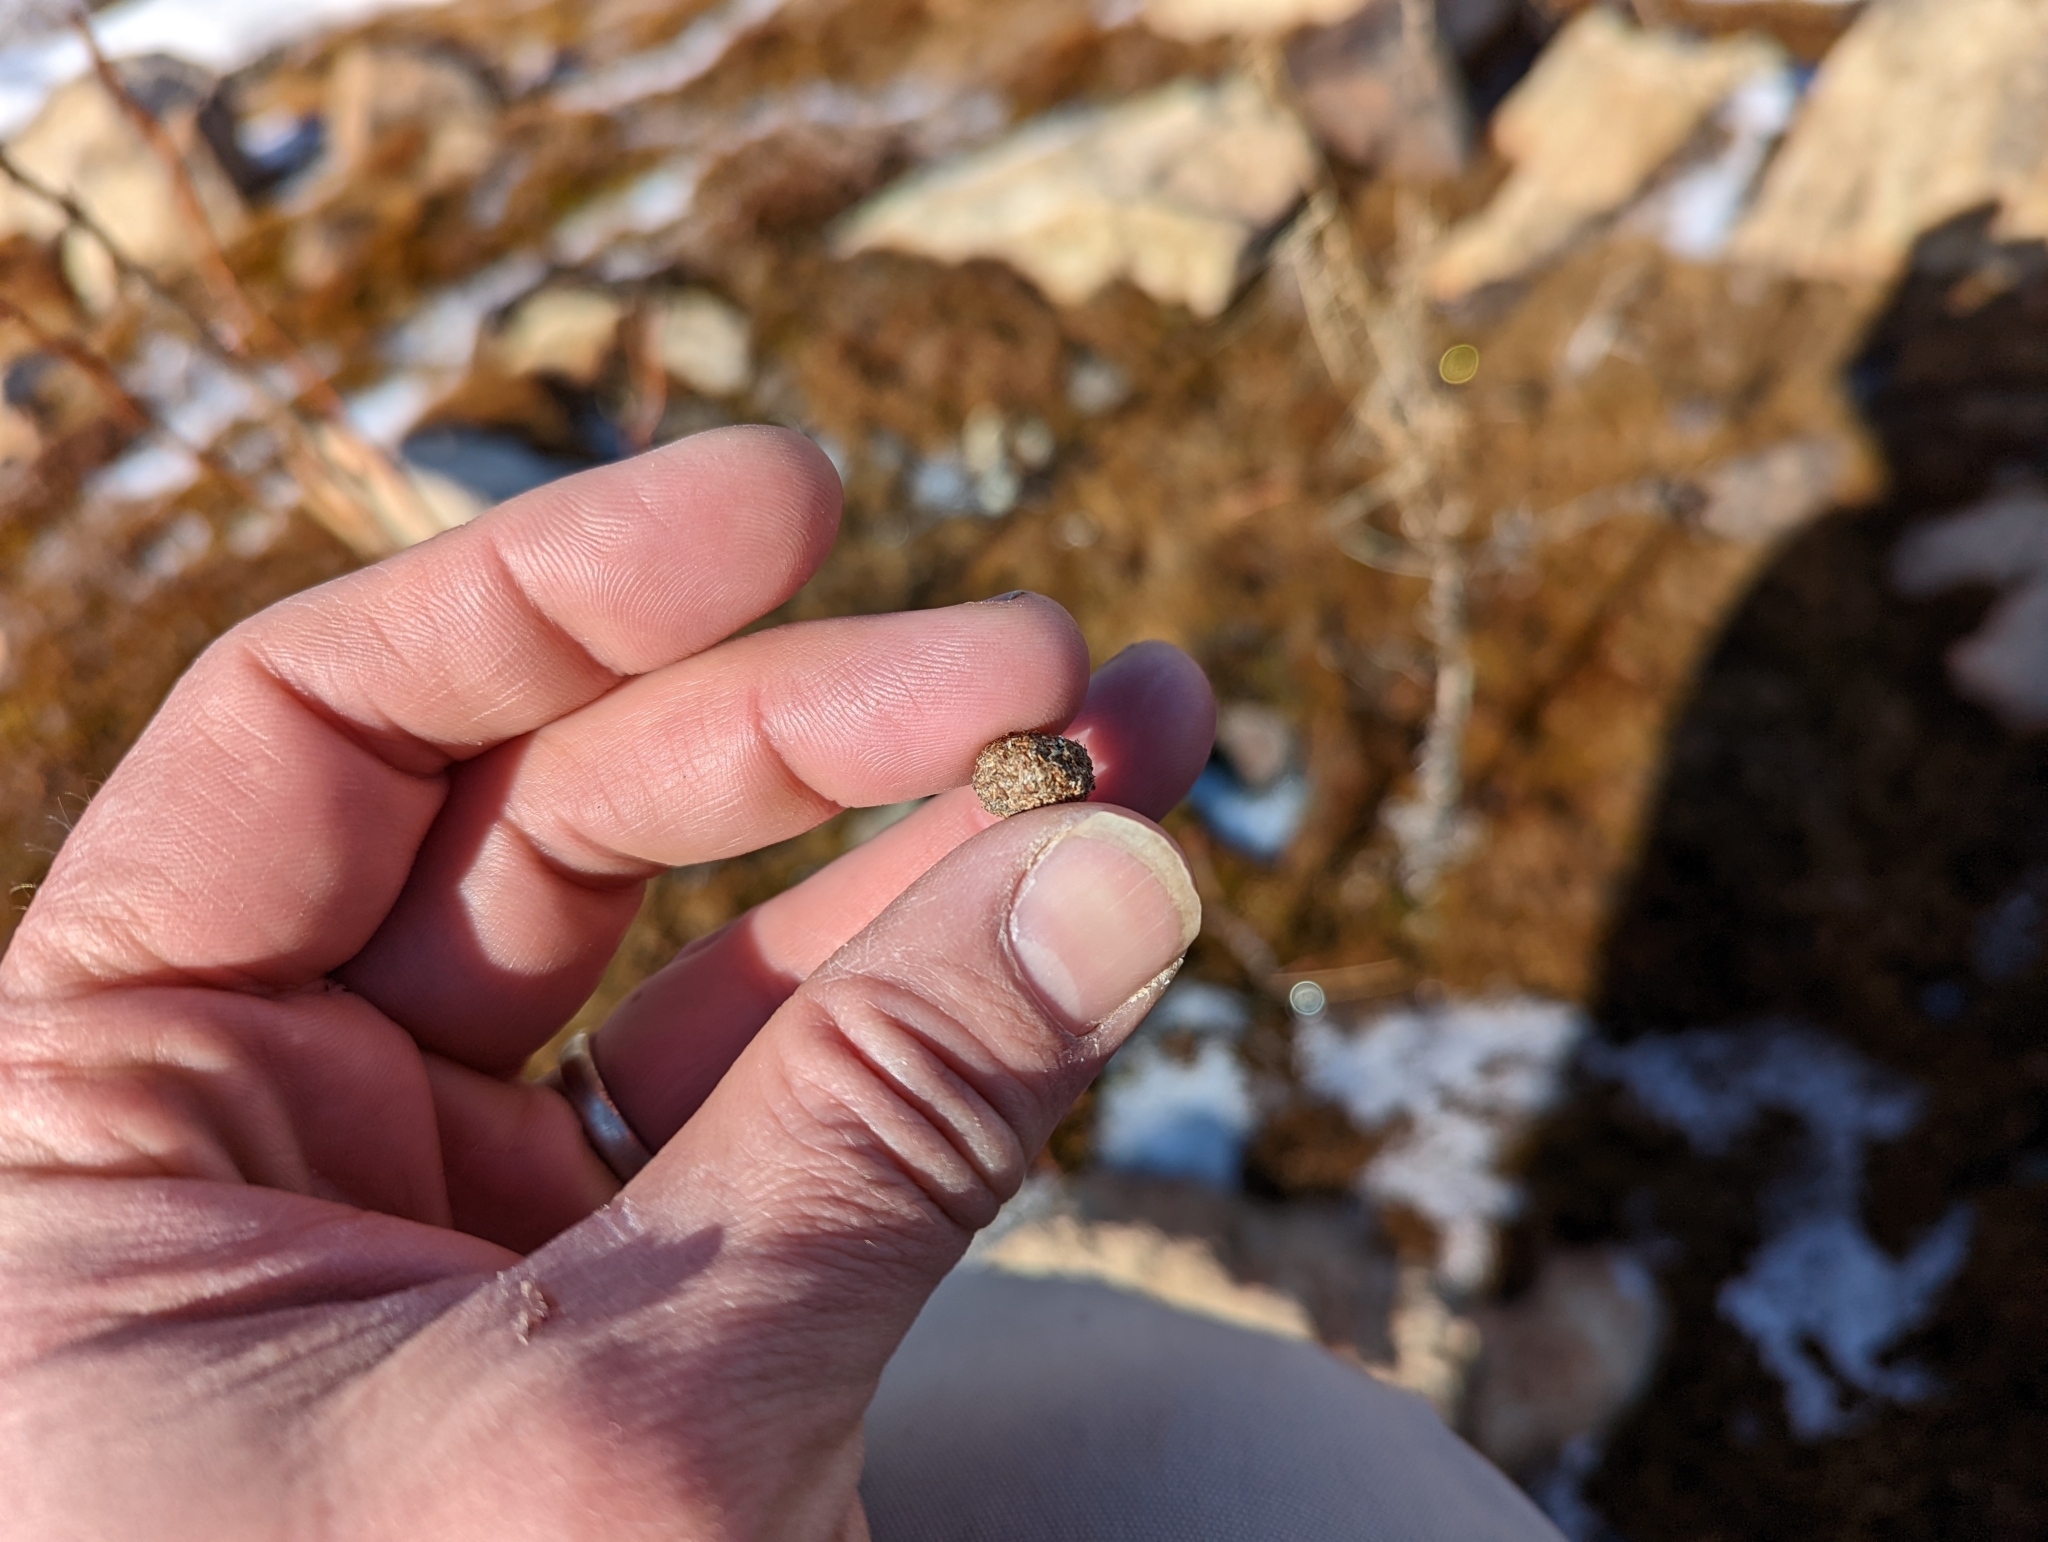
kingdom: Animalia
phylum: Chordata
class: Mammalia
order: Lagomorpha
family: Leporidae
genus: Lepus
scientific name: Lepus americanus
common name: Snowshoe hare
